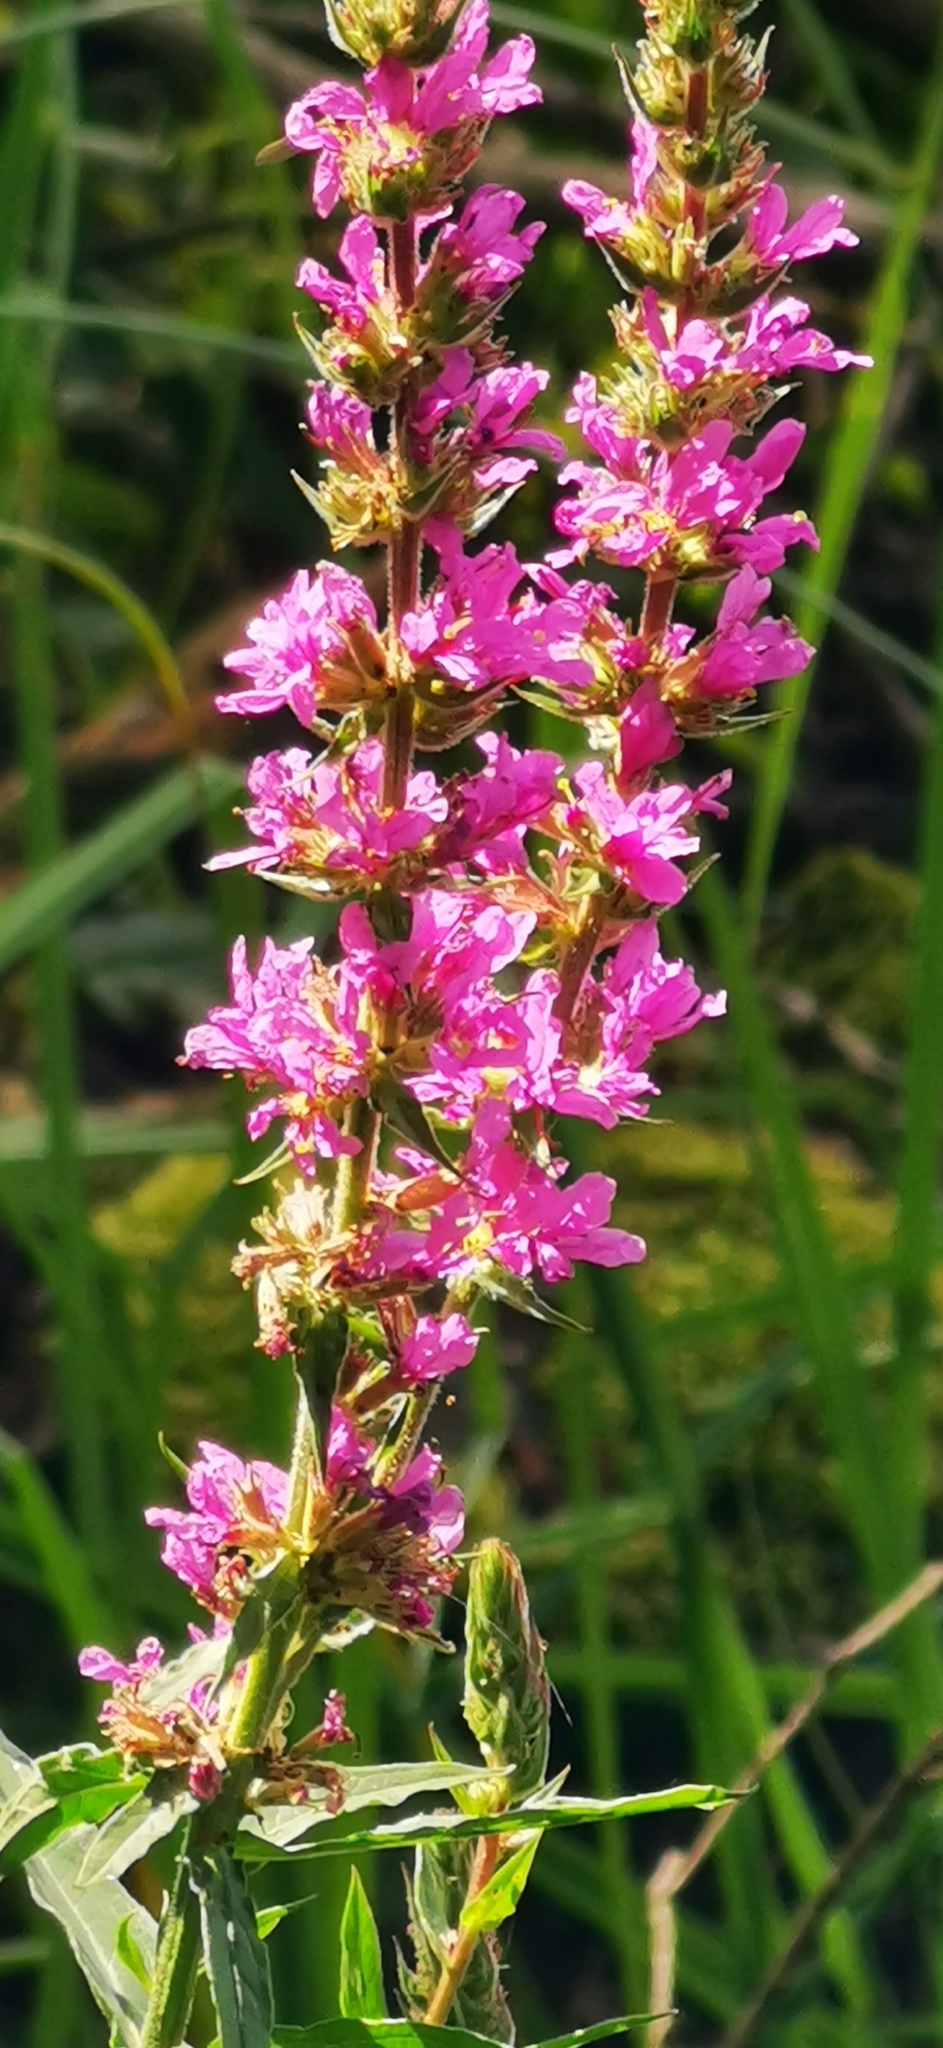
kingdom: Plantae
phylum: Tracheophyta
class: Magnoliopsida
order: Myrtales
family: Lythraceae
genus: Lythrum
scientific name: Lythrum salicaria
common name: Purple loosestrife
